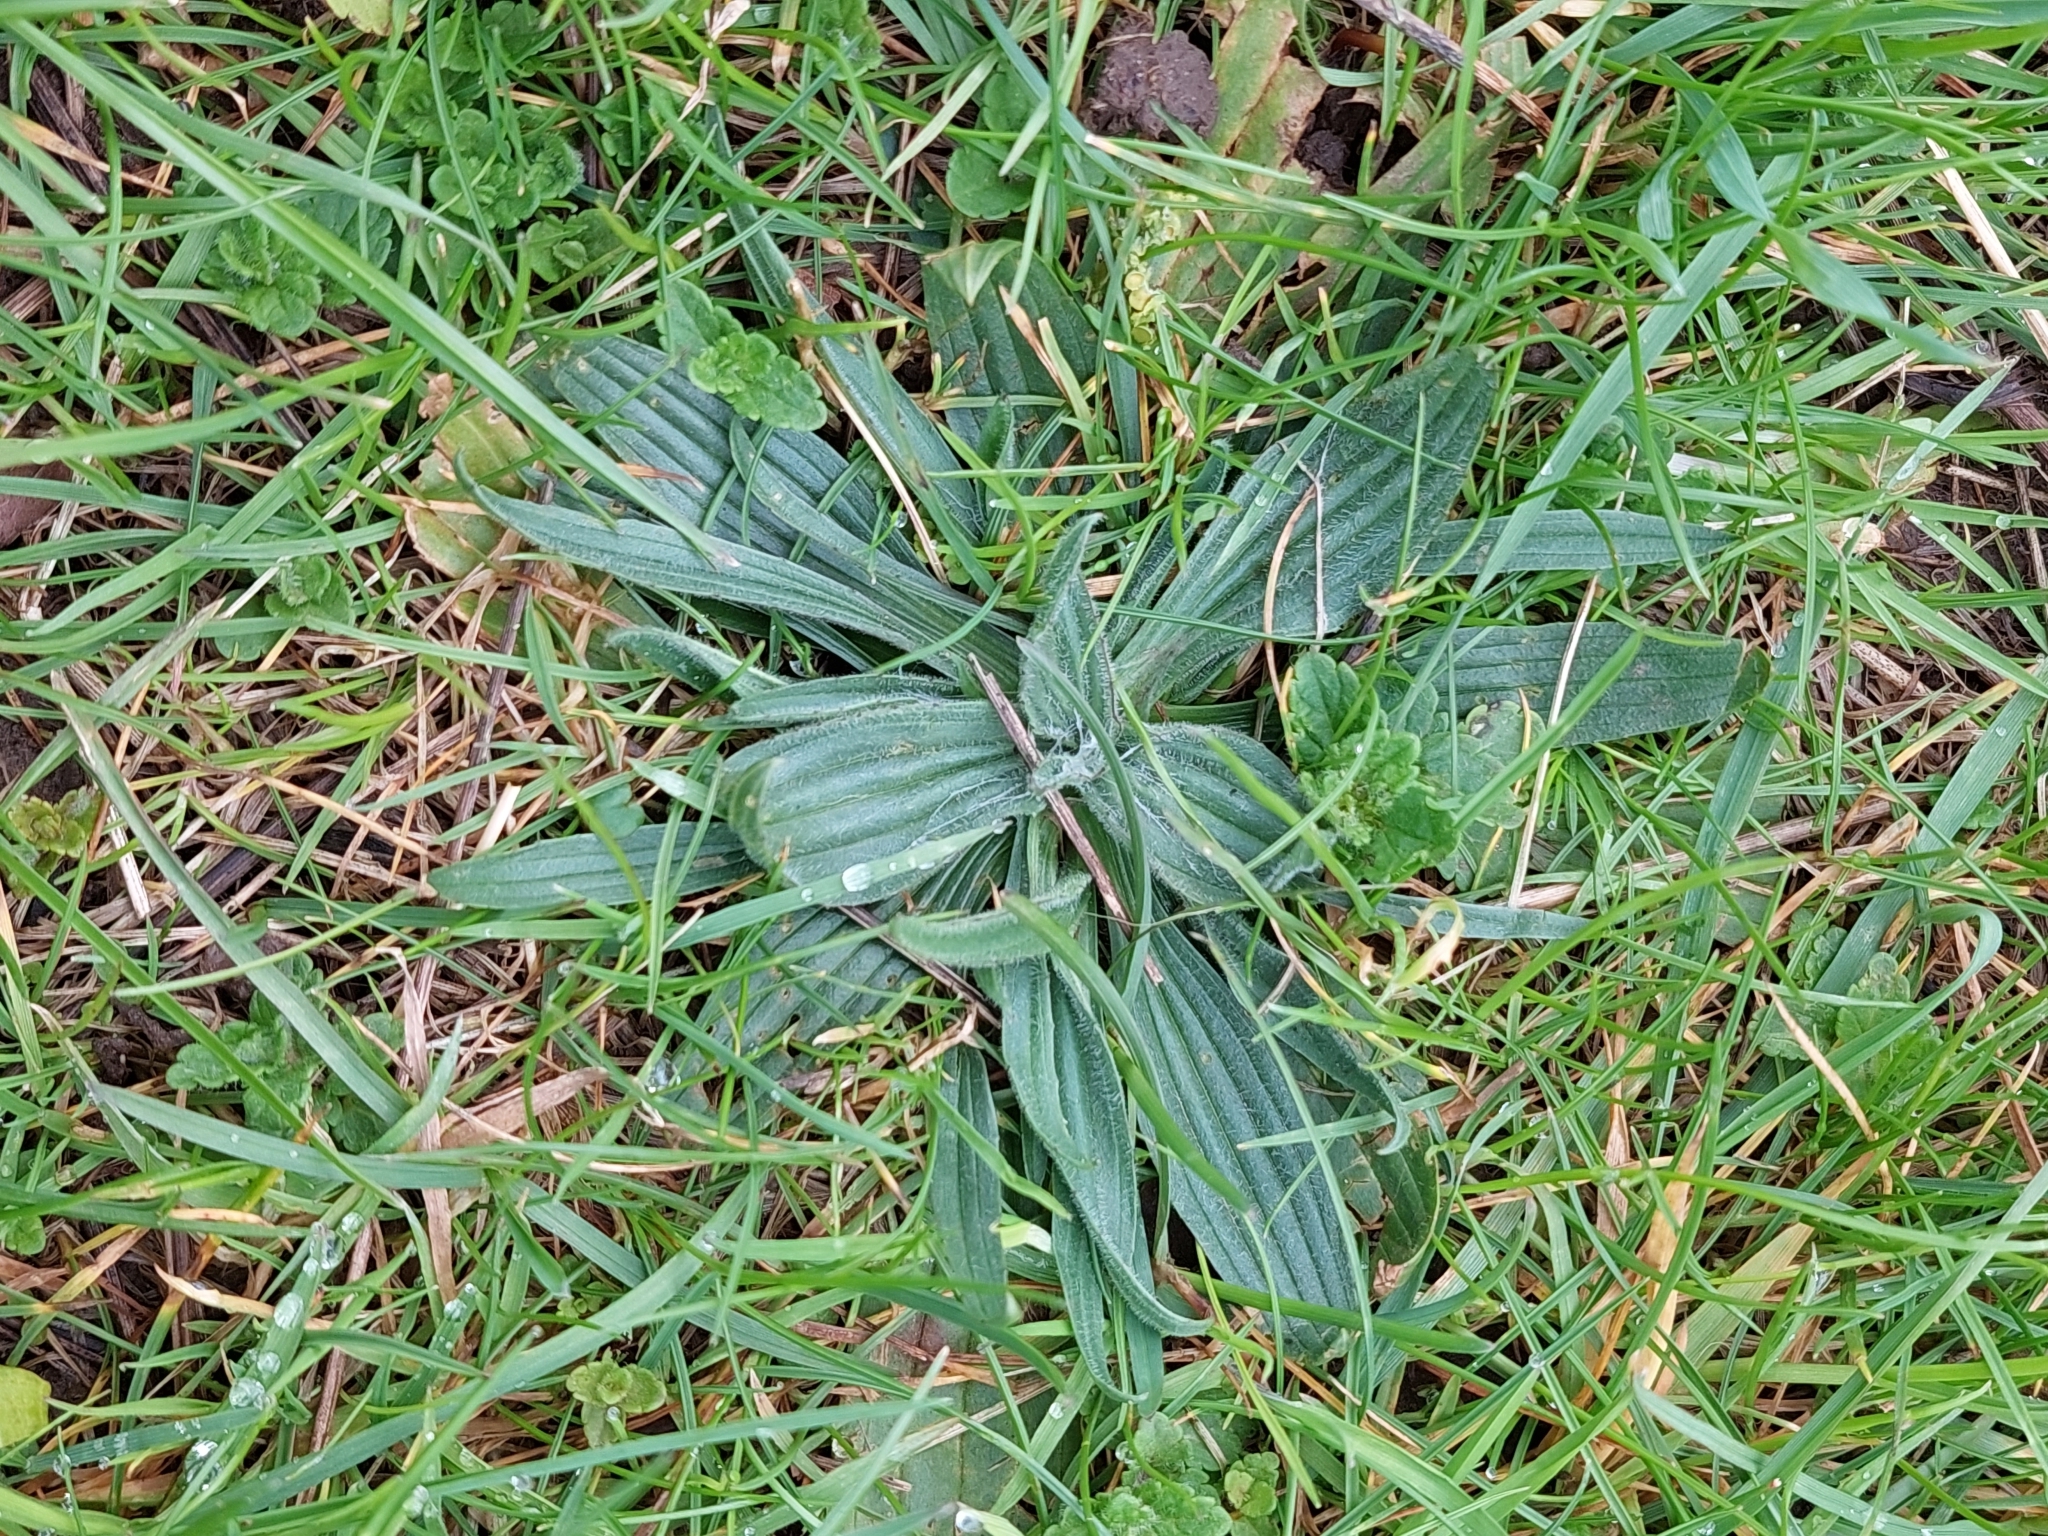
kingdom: Plantae
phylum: Tracheophyta
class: Magnoliopsida
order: Lamiales
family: Plantaginaceae
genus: Plantago
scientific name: Plantago lanceolata
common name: Ribwort plantain
